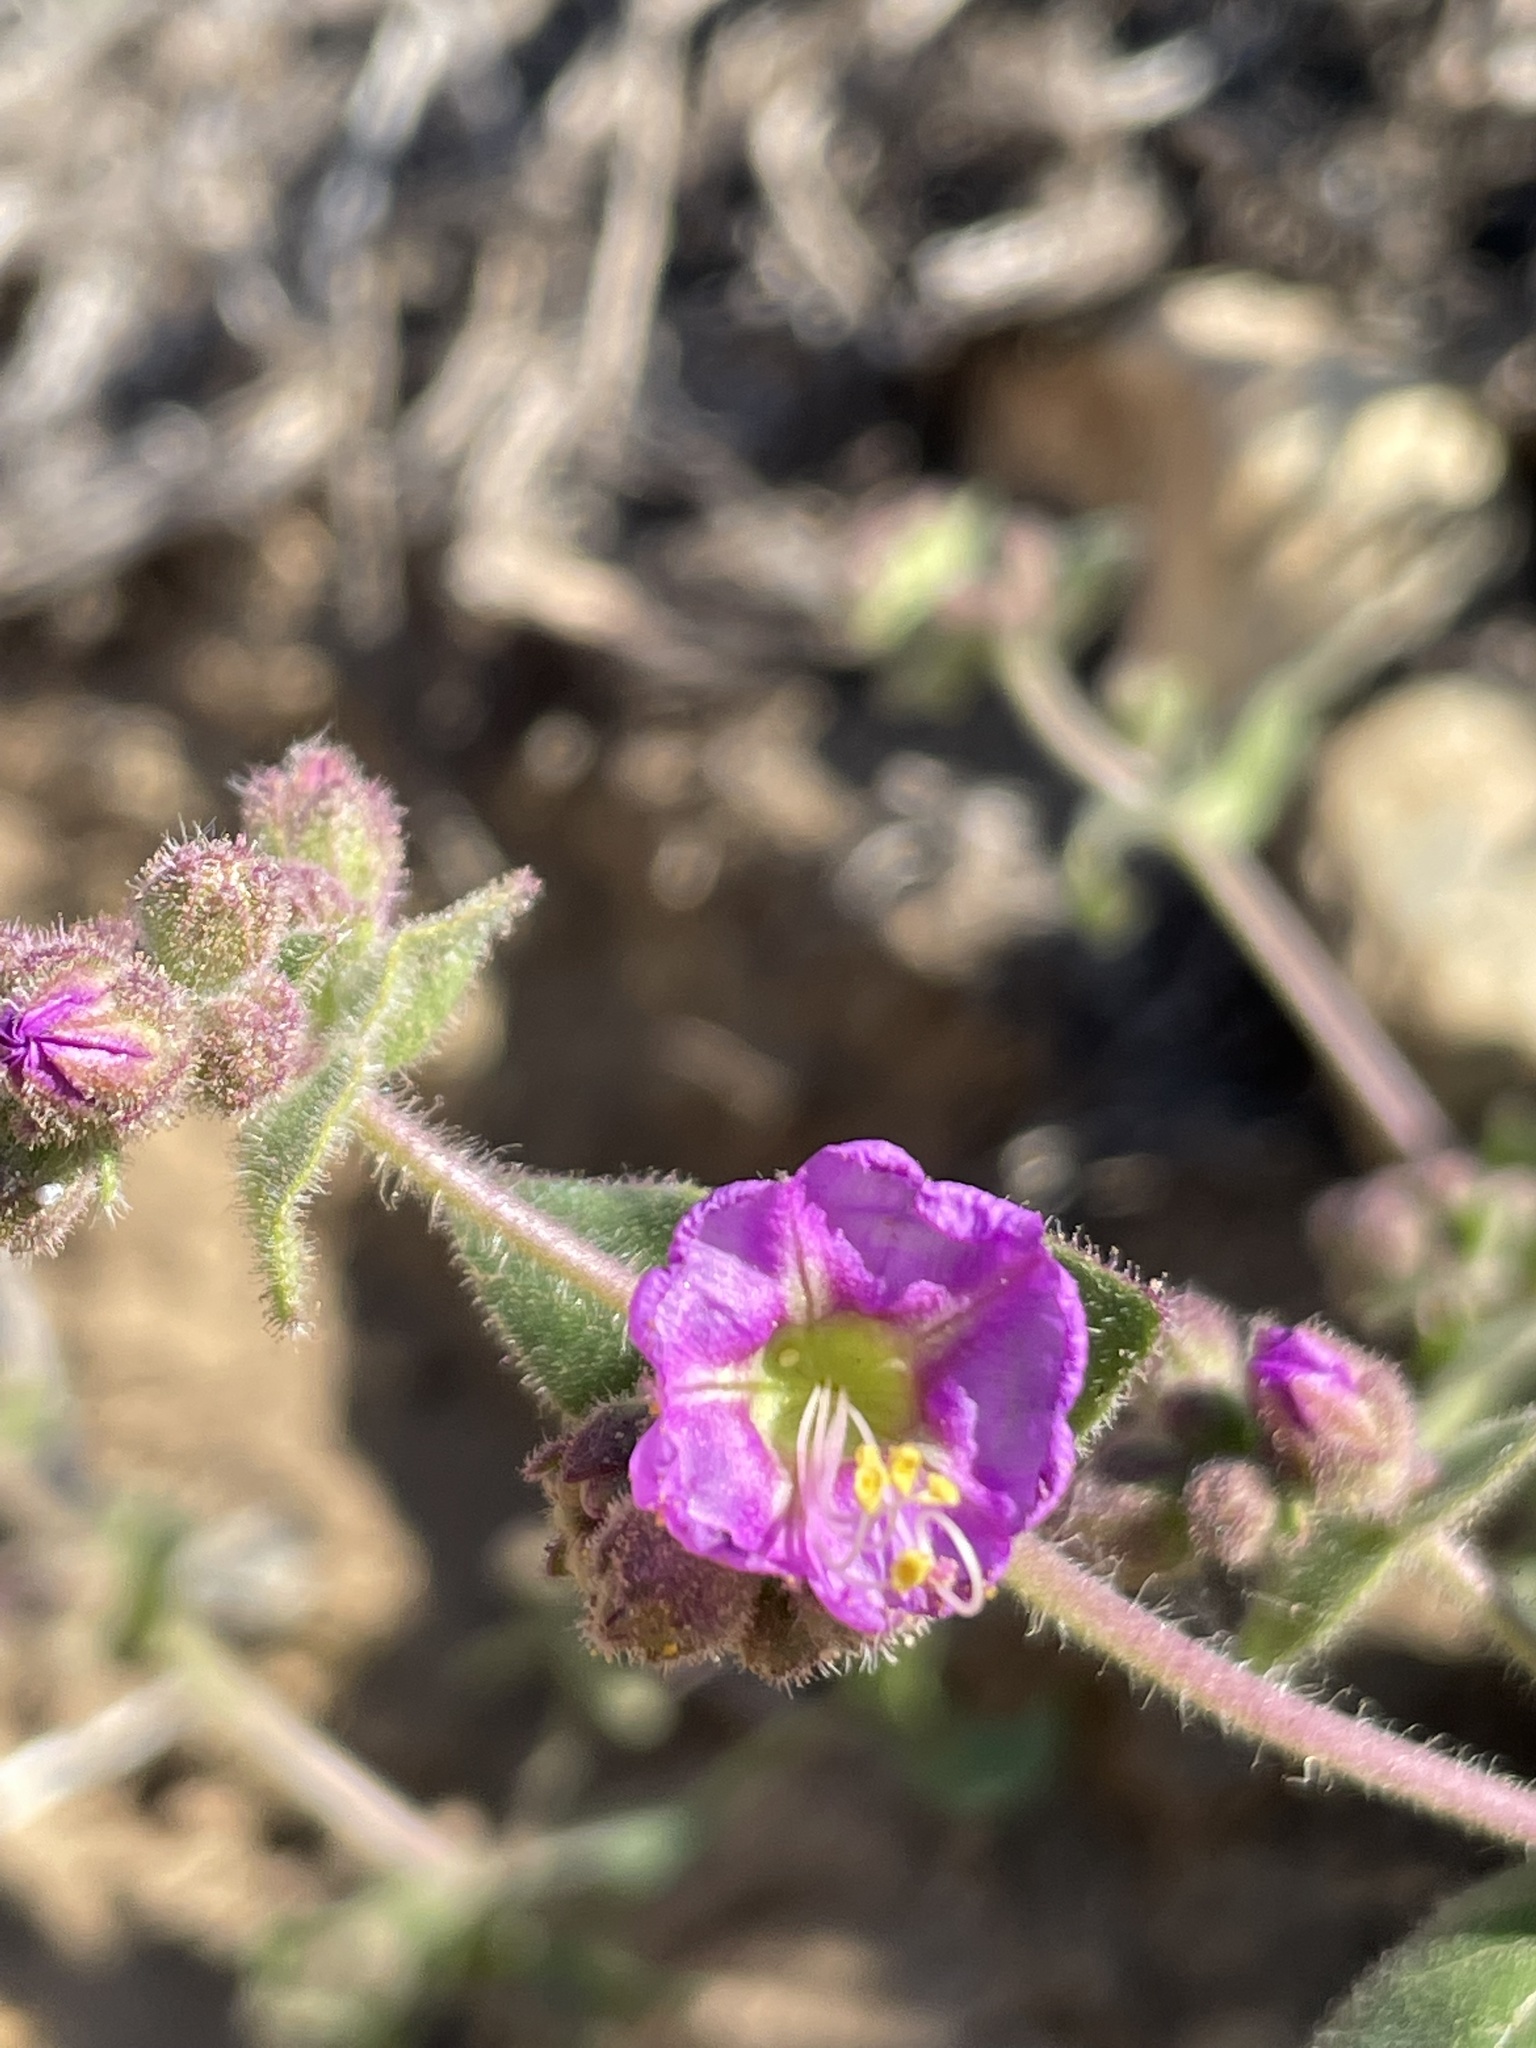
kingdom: Plantae
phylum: Tracheophyta
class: Magnoliopsida
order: Caryophyllales
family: Nyctaginaceae
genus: Mirabilis
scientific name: Mirabilis laevis
